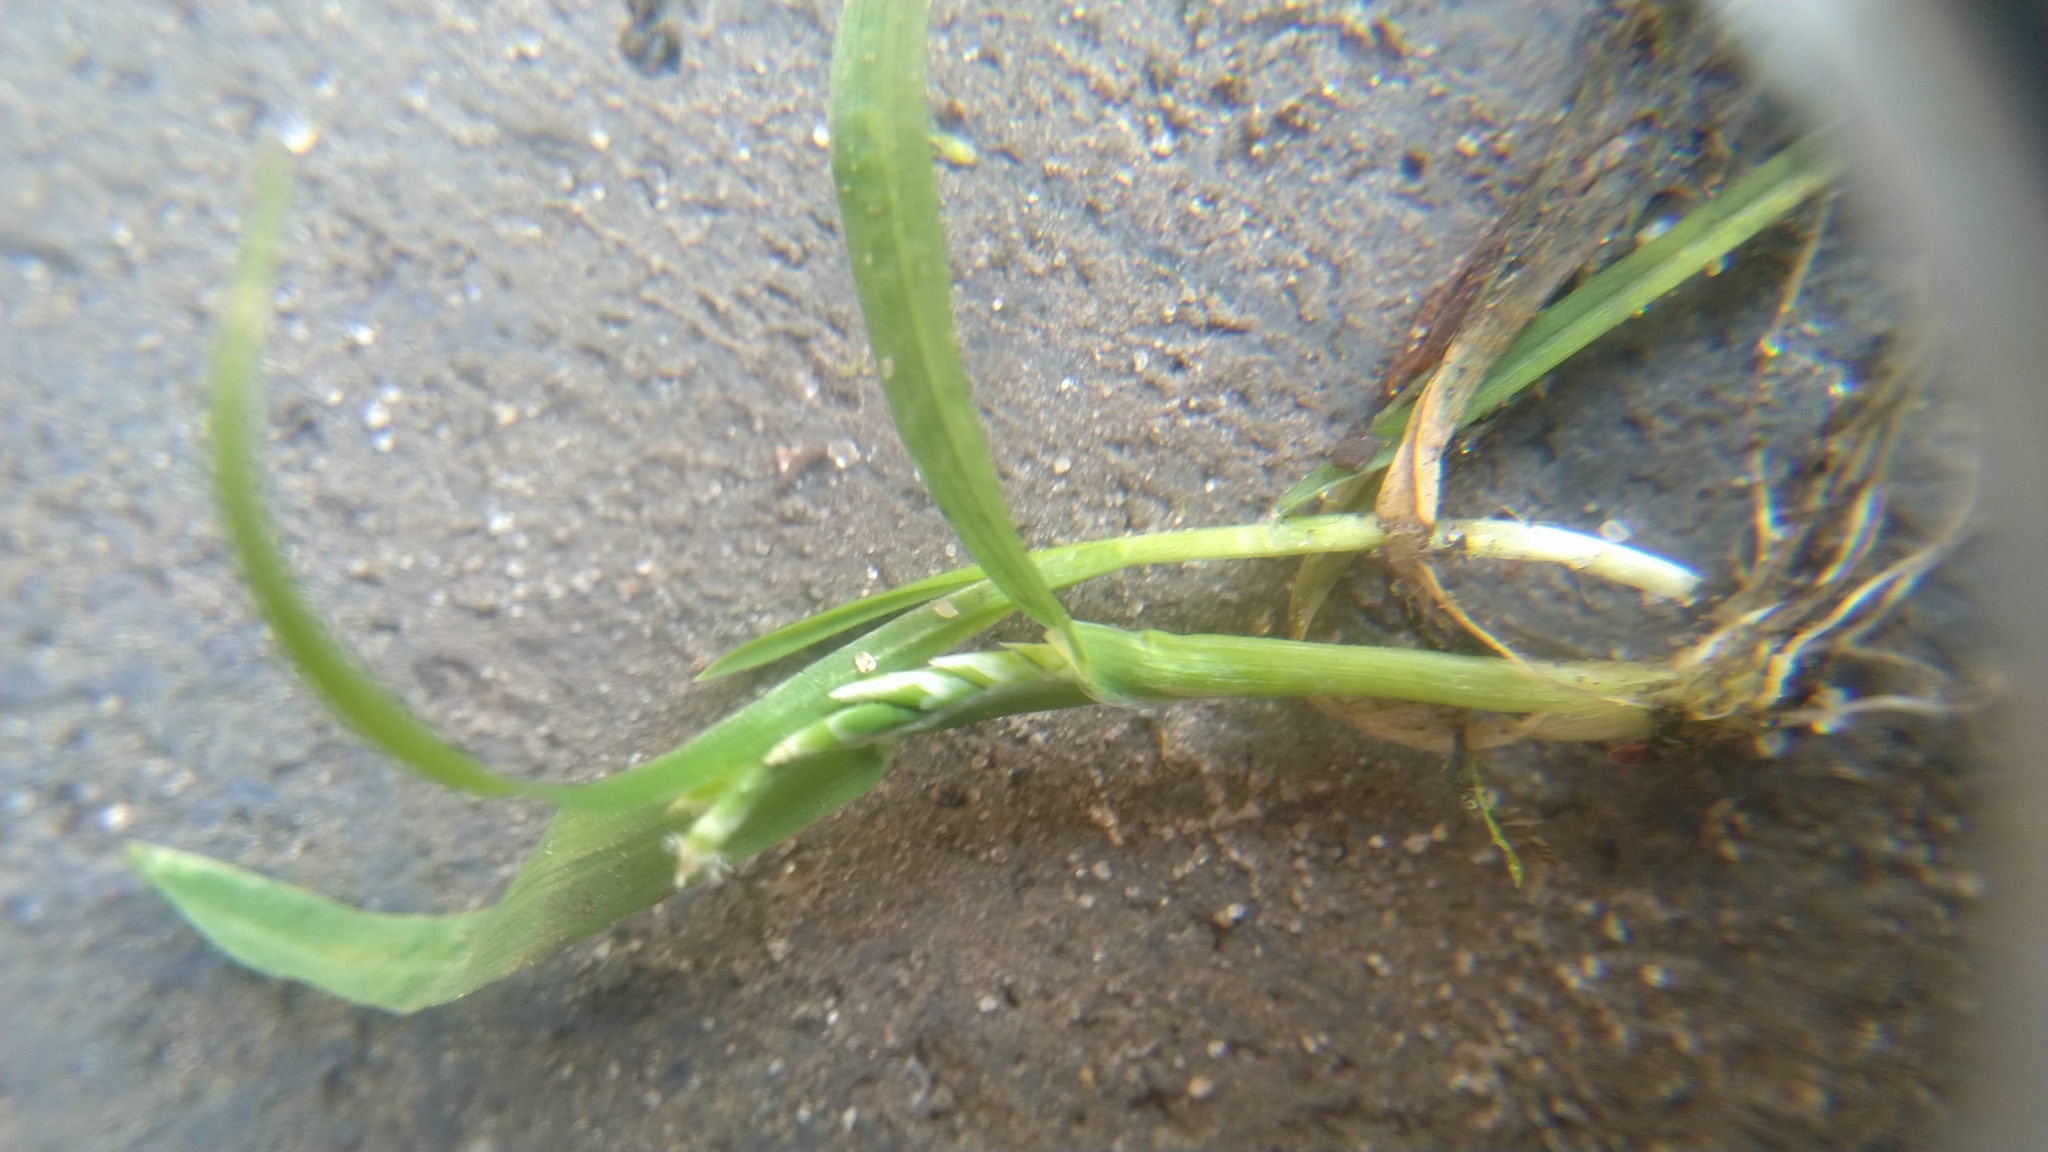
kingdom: Plantae
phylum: Tracheophyta
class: Liliopsida
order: Poales
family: Poaceae
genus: Poa
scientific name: Poa annua
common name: Annual bluegrass
